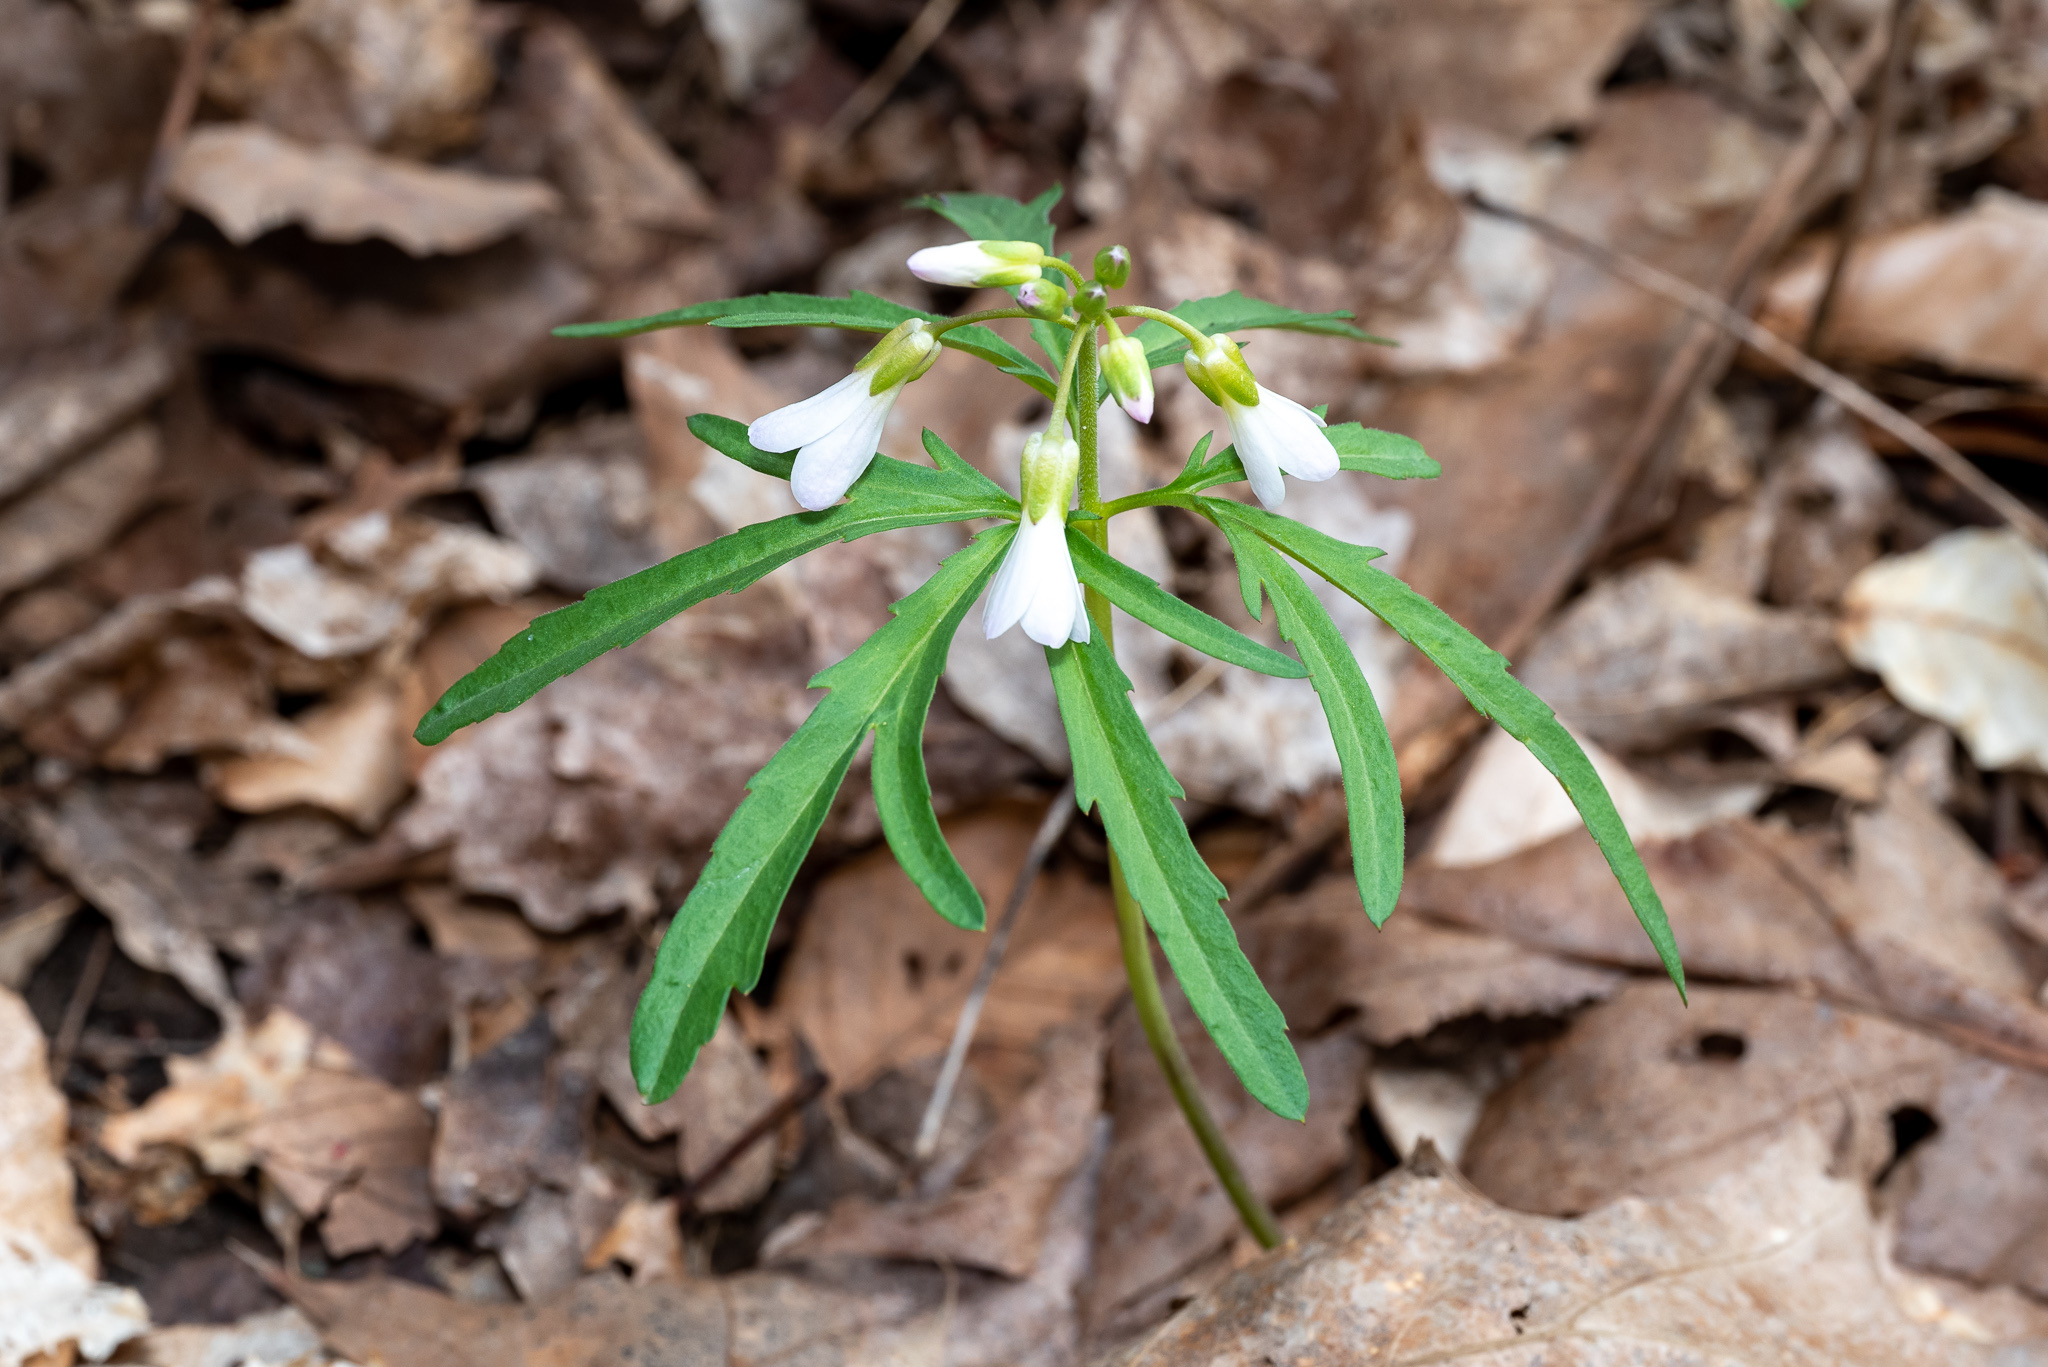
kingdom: Plantae
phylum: Tracheophyta
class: Magnoliopsida
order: Brassicales
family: Brassicaceae
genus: Cardamine
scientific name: Cardamine concatenata
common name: Cut-leaf toothcup
